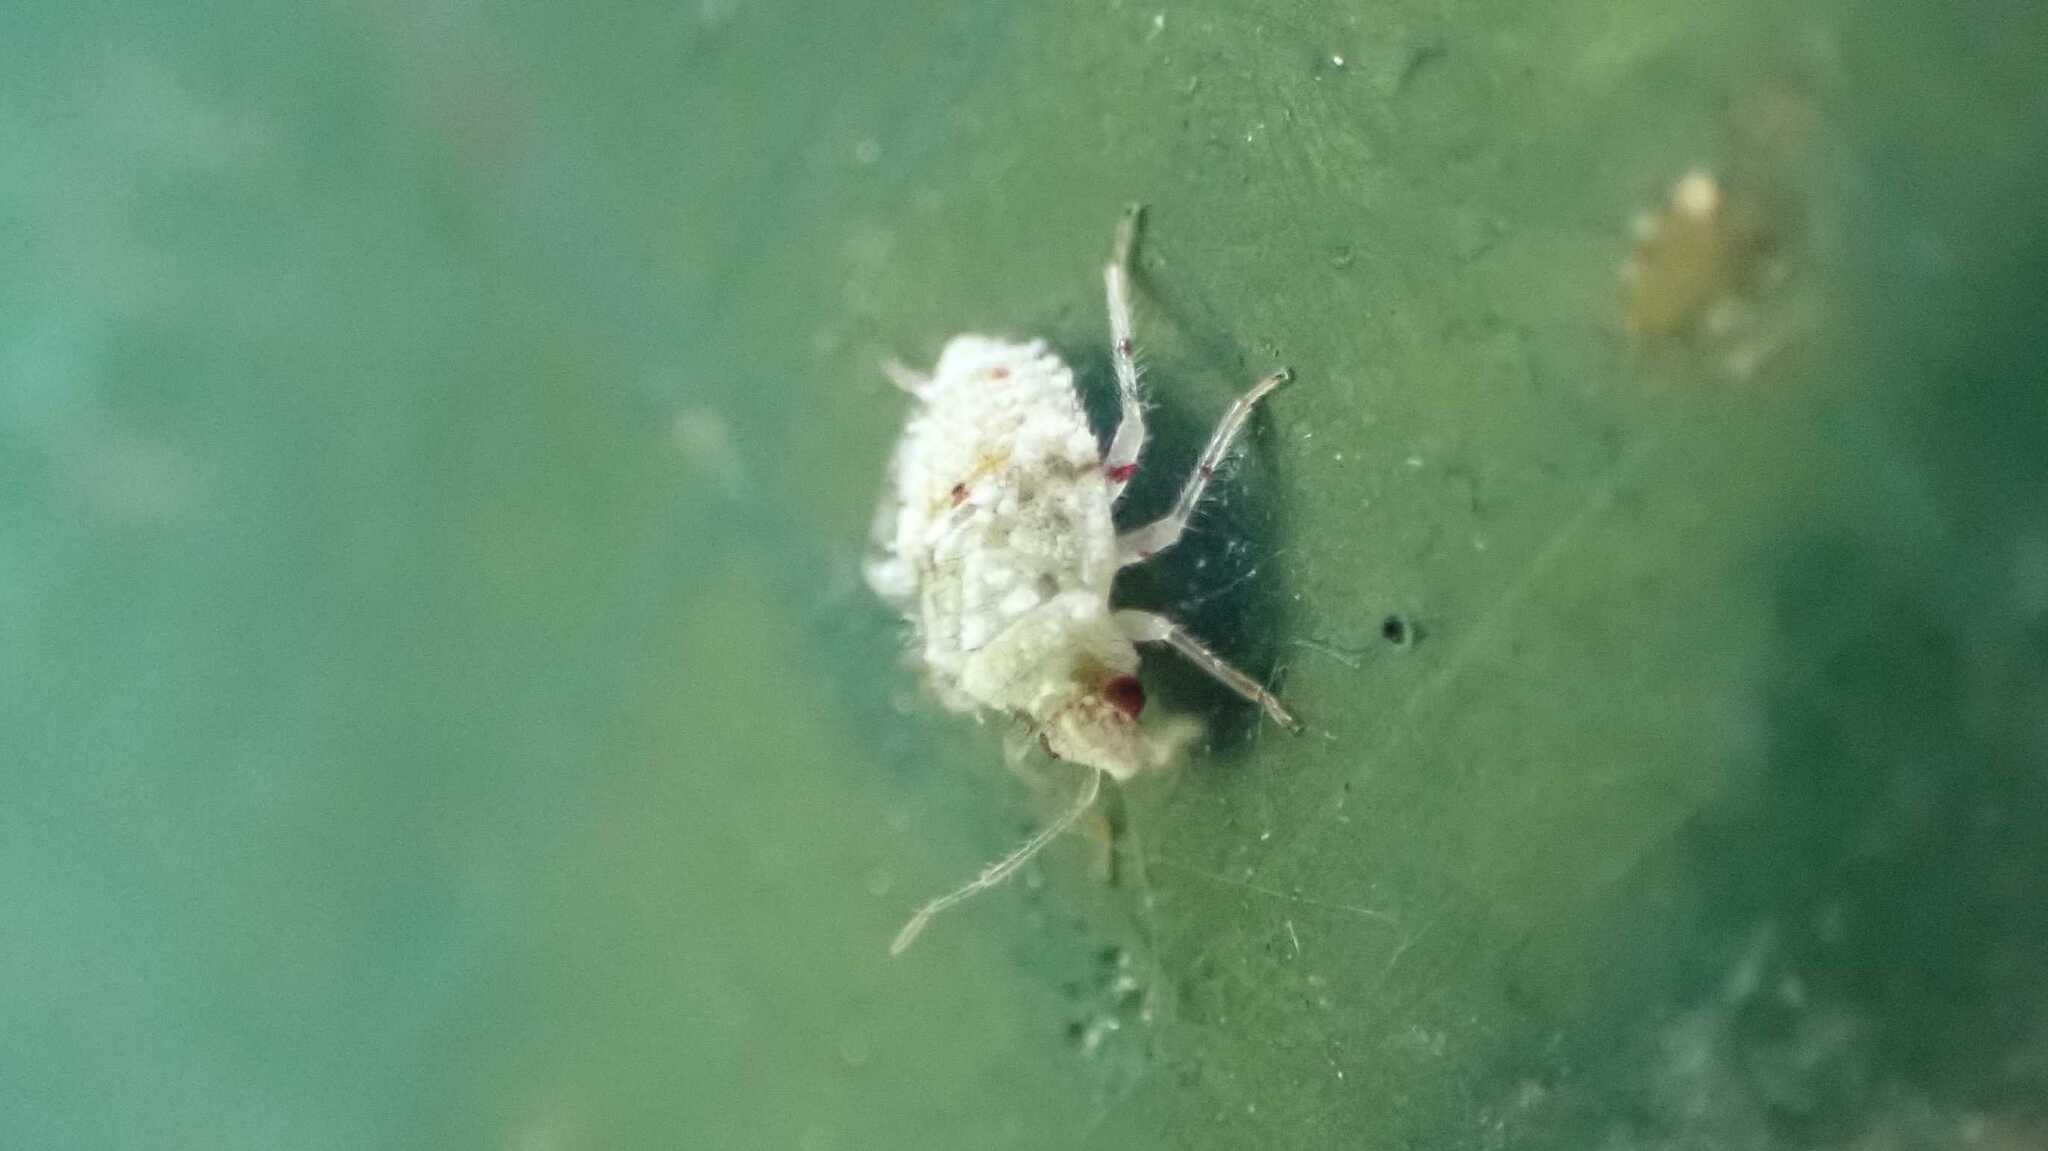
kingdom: Animalia
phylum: Arthropoda
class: Insecta
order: Hemiptera
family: Miridae
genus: Deraeocoris
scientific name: Deraeocoris lutescens
